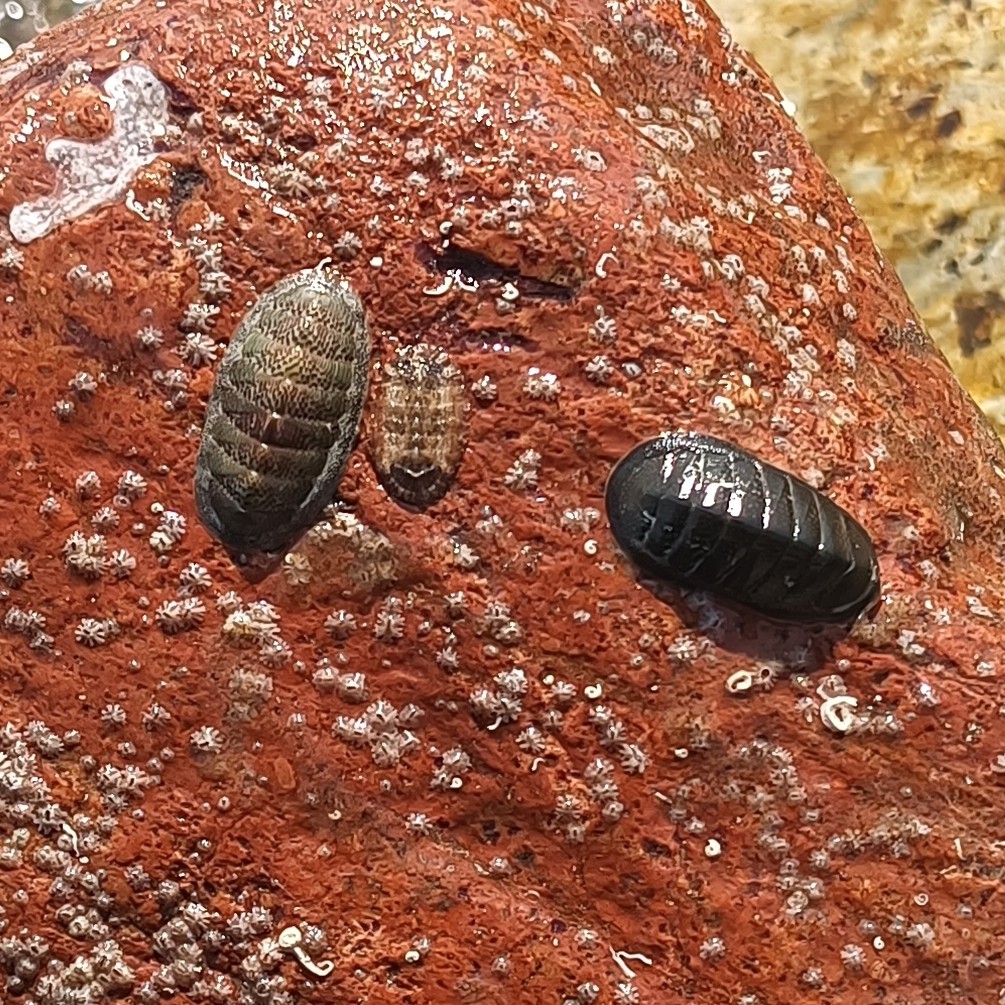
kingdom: Animalia
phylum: Mollusca
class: Polyplacophora
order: Chitonida
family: Ischnochitonidae
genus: Ischnochiton
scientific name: Ischnochiton muscarius
